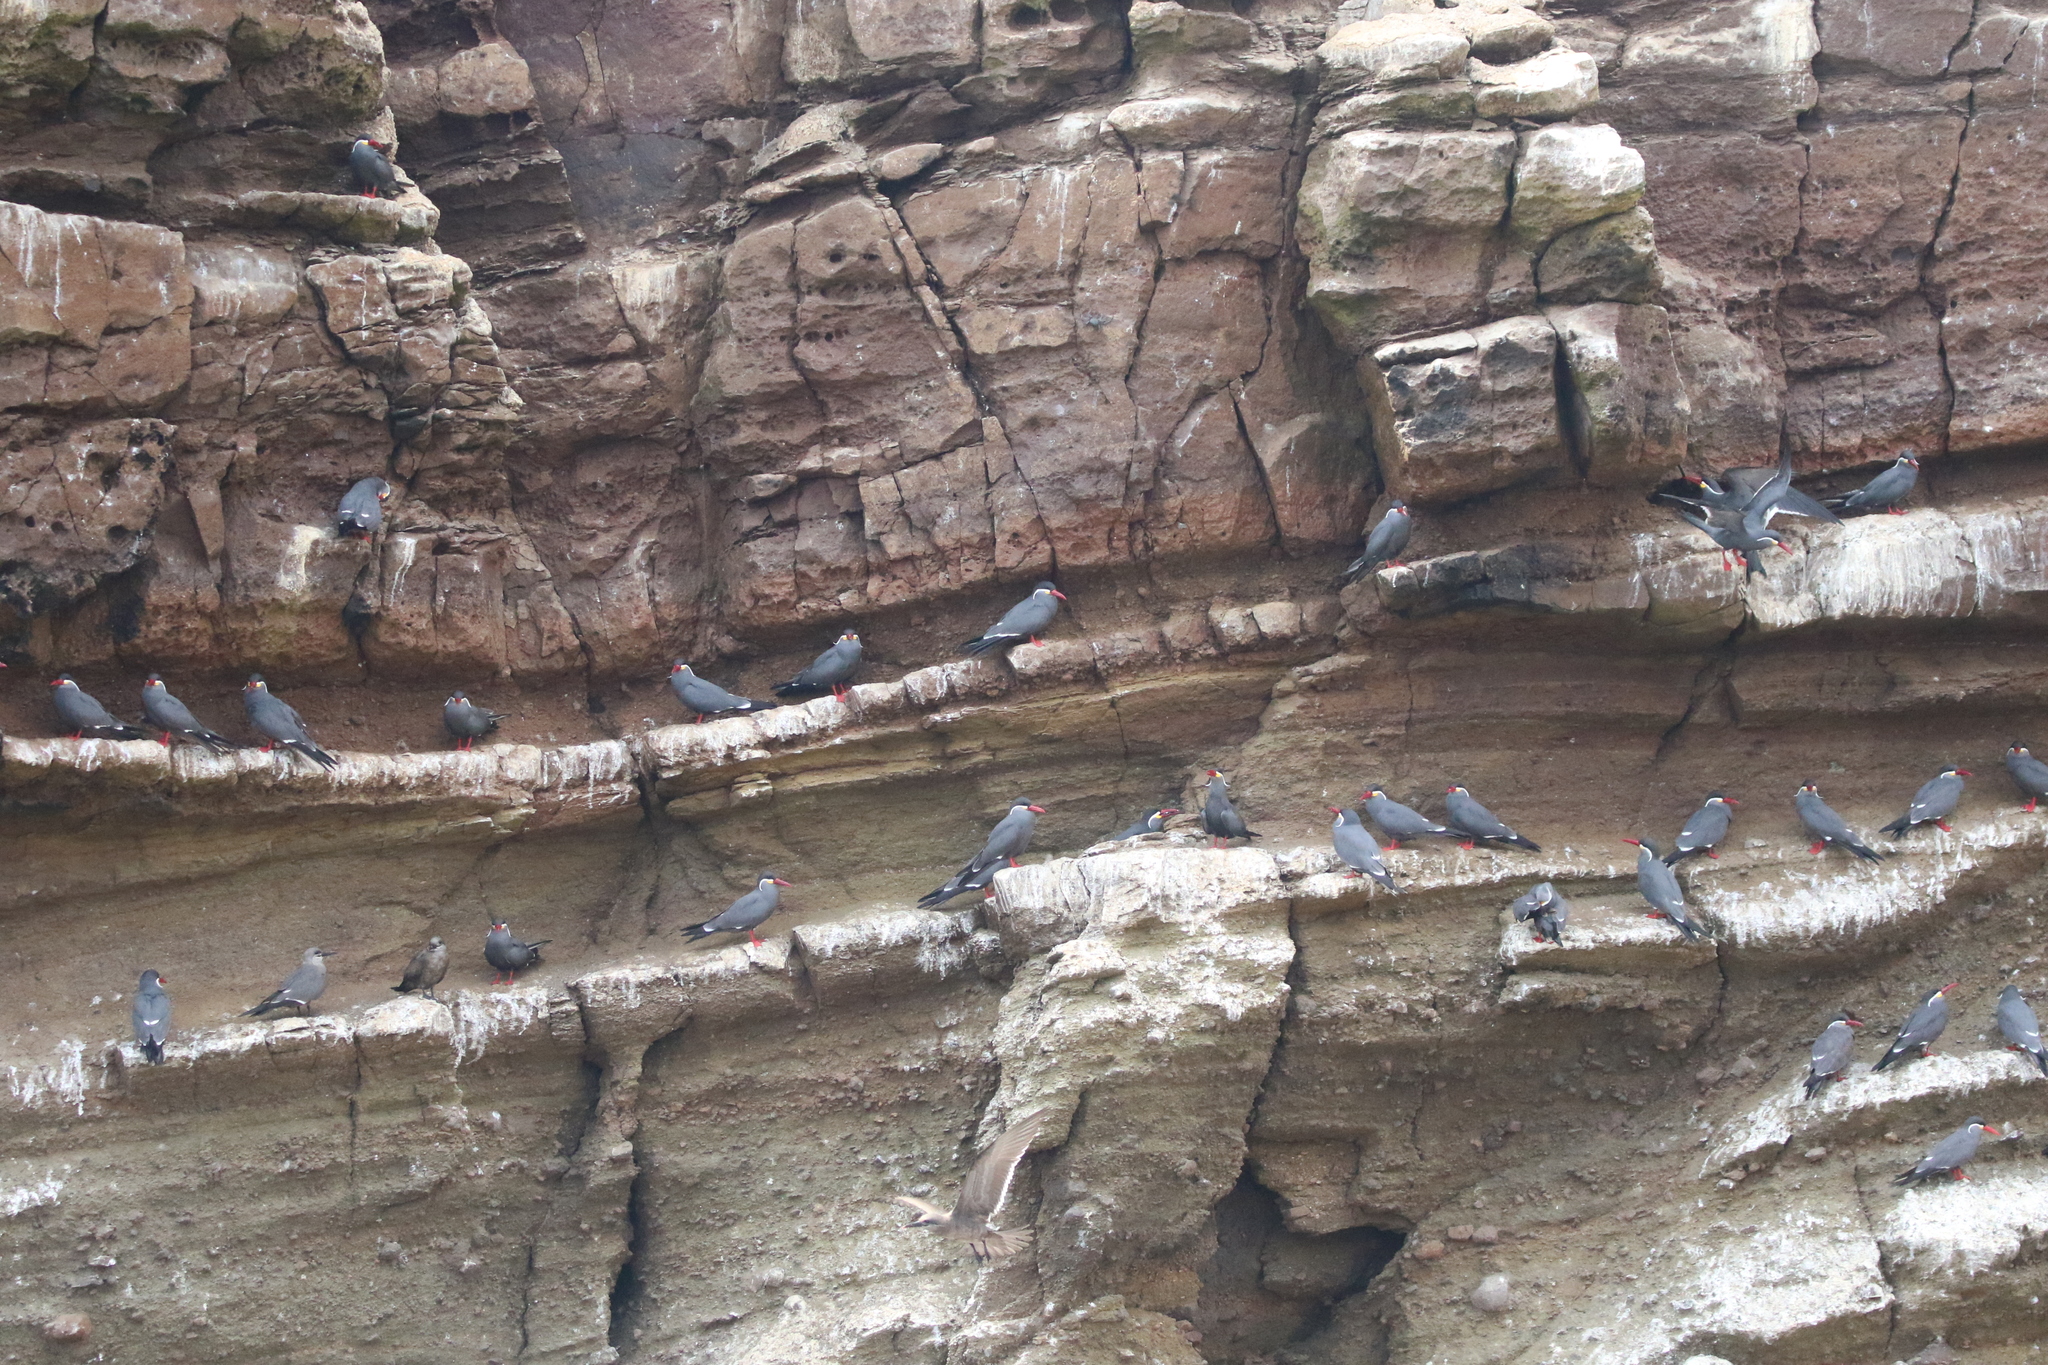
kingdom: Animalia
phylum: Chordata
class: Aves
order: Charadriiformes
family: Laridae
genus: Larosterna
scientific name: Larosterna inca
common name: Inca tern
